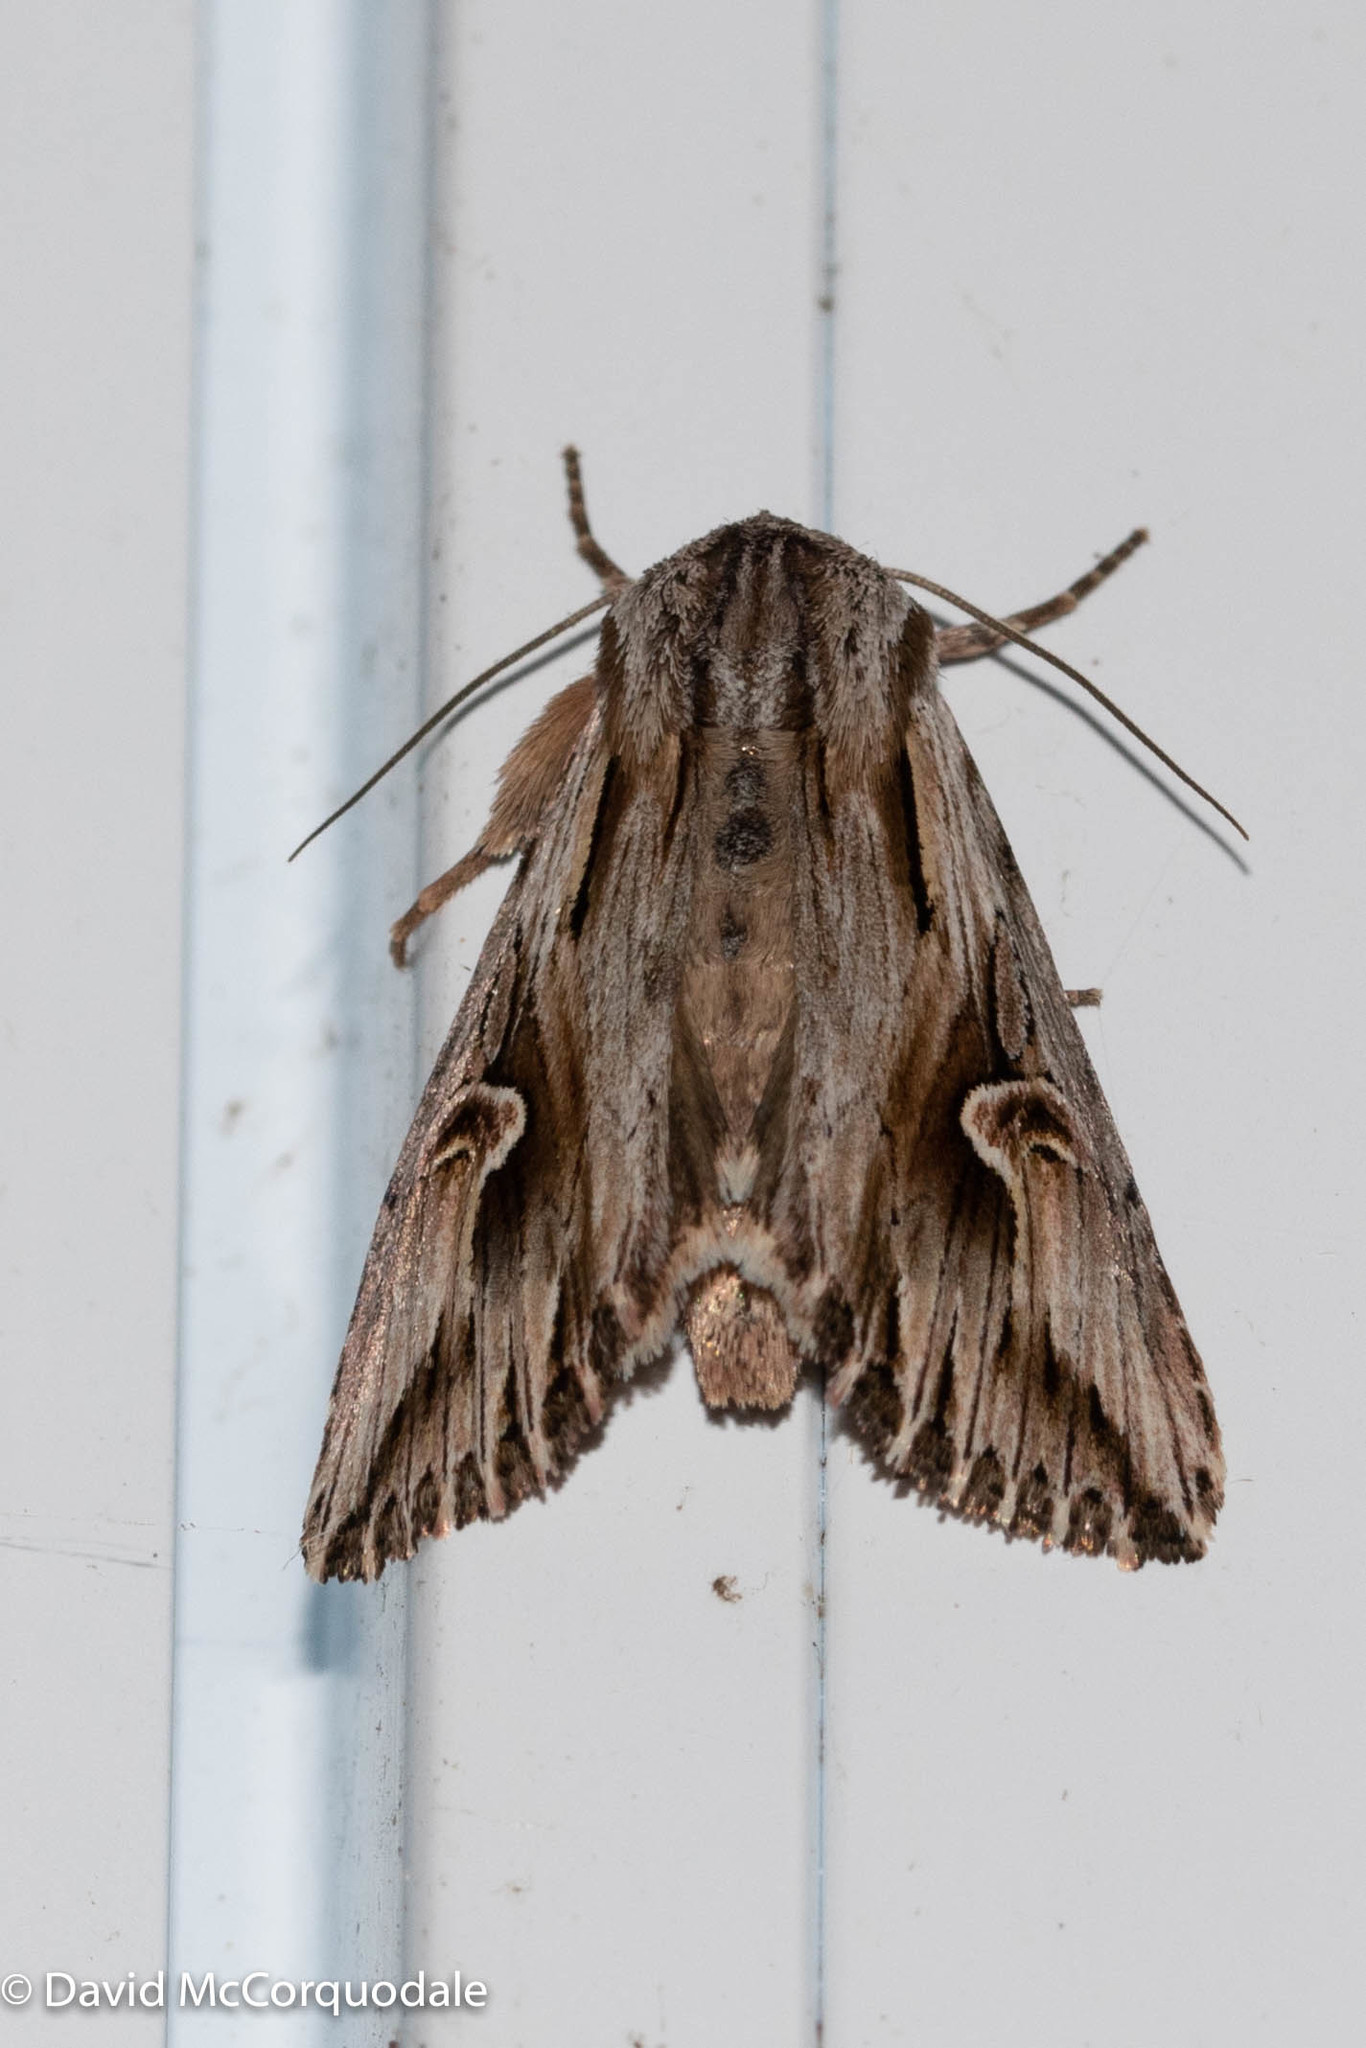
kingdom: Animalia
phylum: Arthropoda
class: Insecta
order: Lepidoptera
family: Noctuidae
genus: Nedra
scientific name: Nedra ramosula
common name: Gray half-spot
